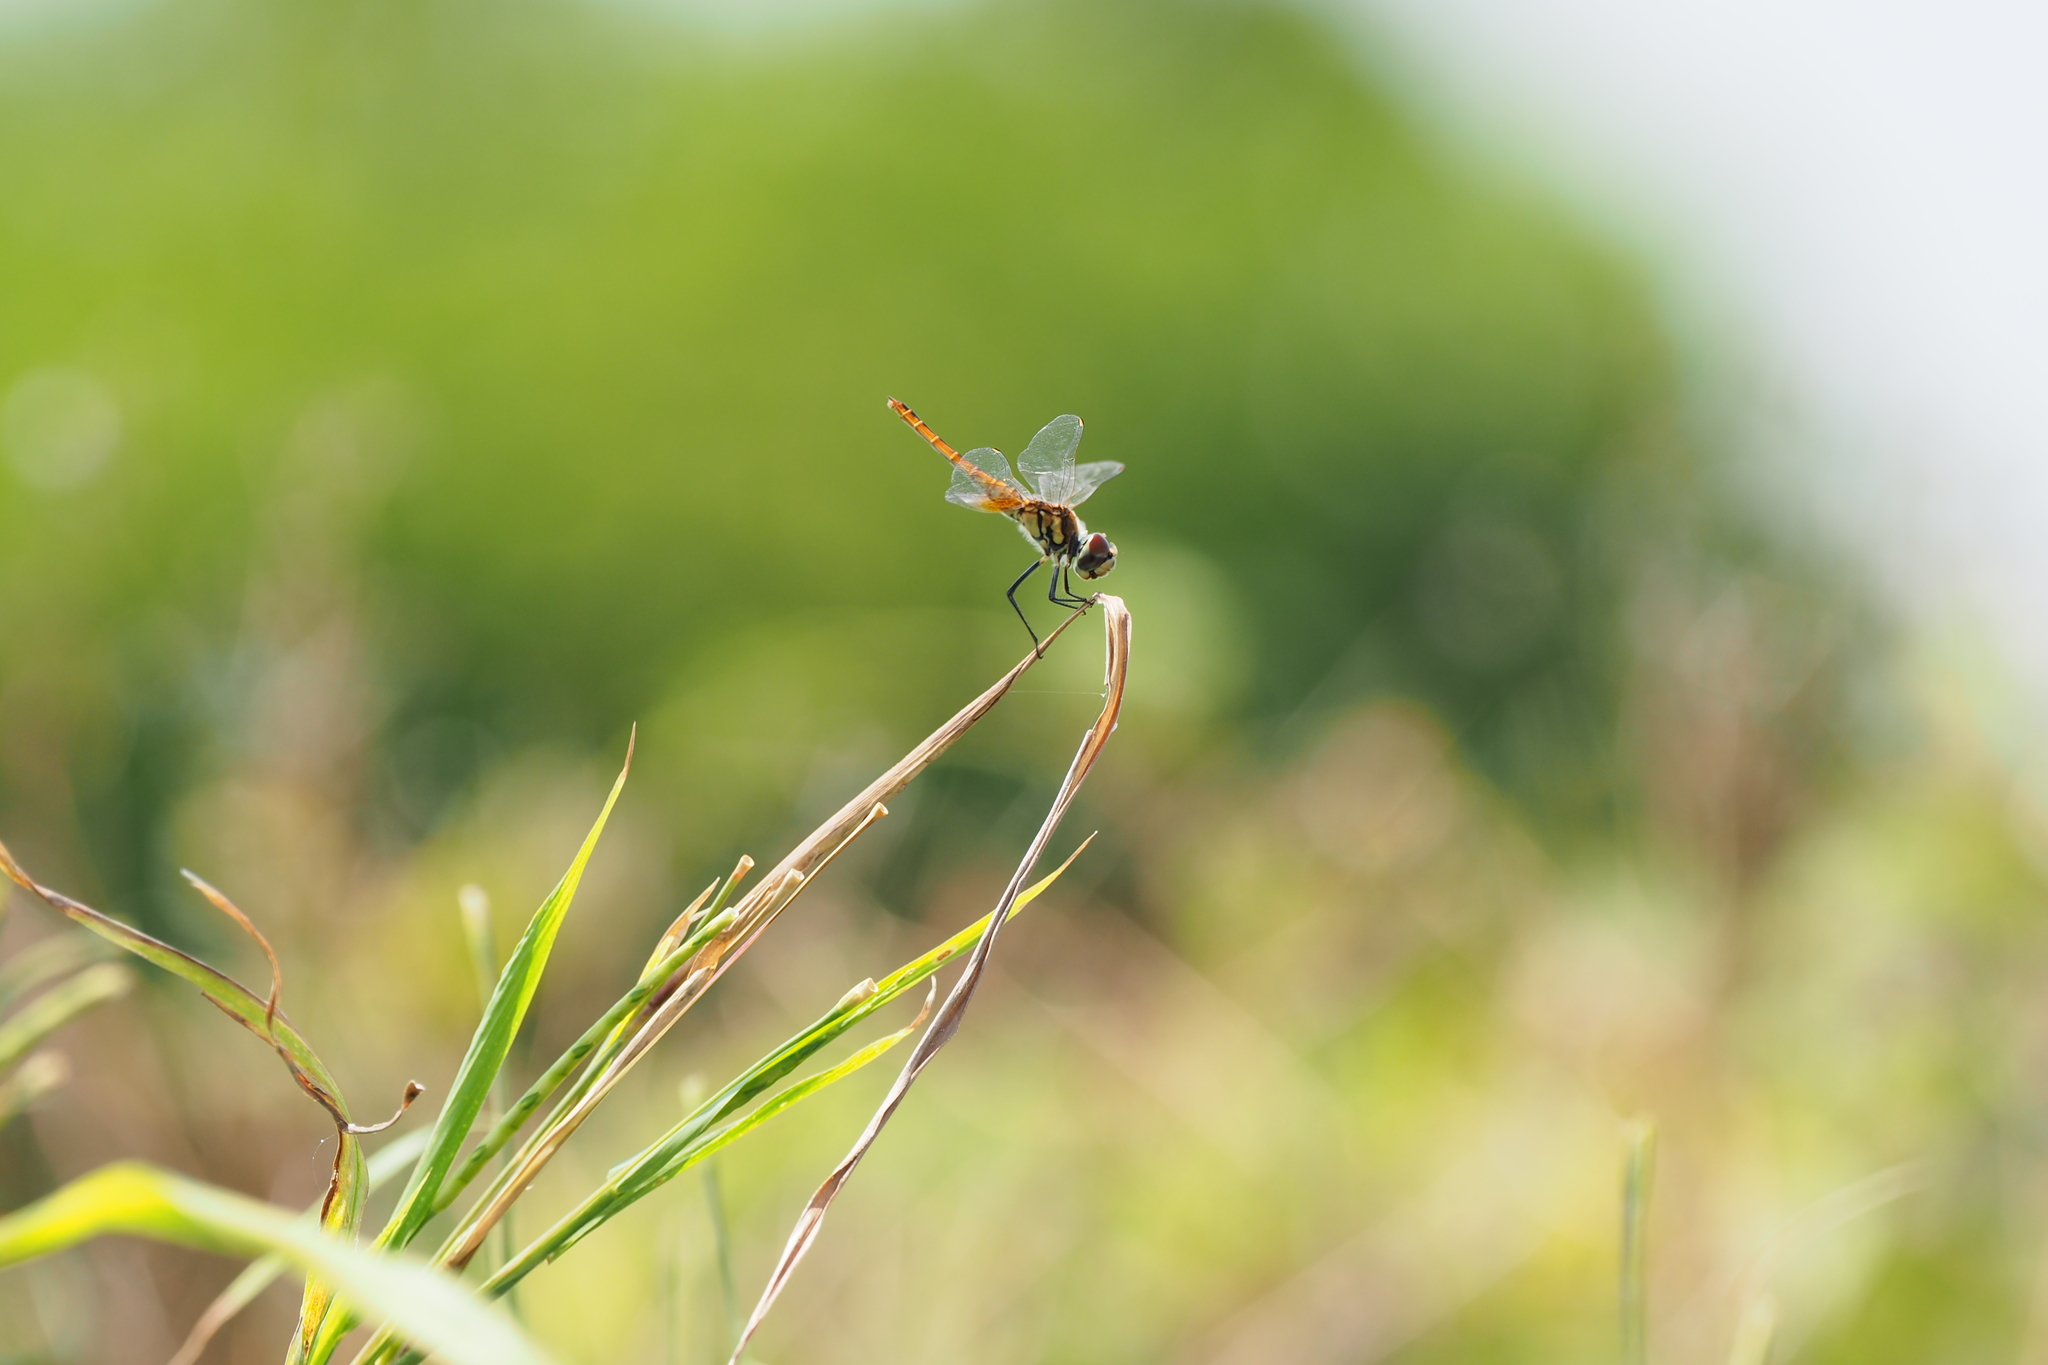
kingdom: Animalia
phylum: Arthropoda
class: Insecta
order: Odonata
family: Libellulidae
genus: Macrodiplax
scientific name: Macrodiplax cora
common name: Coastal glider
